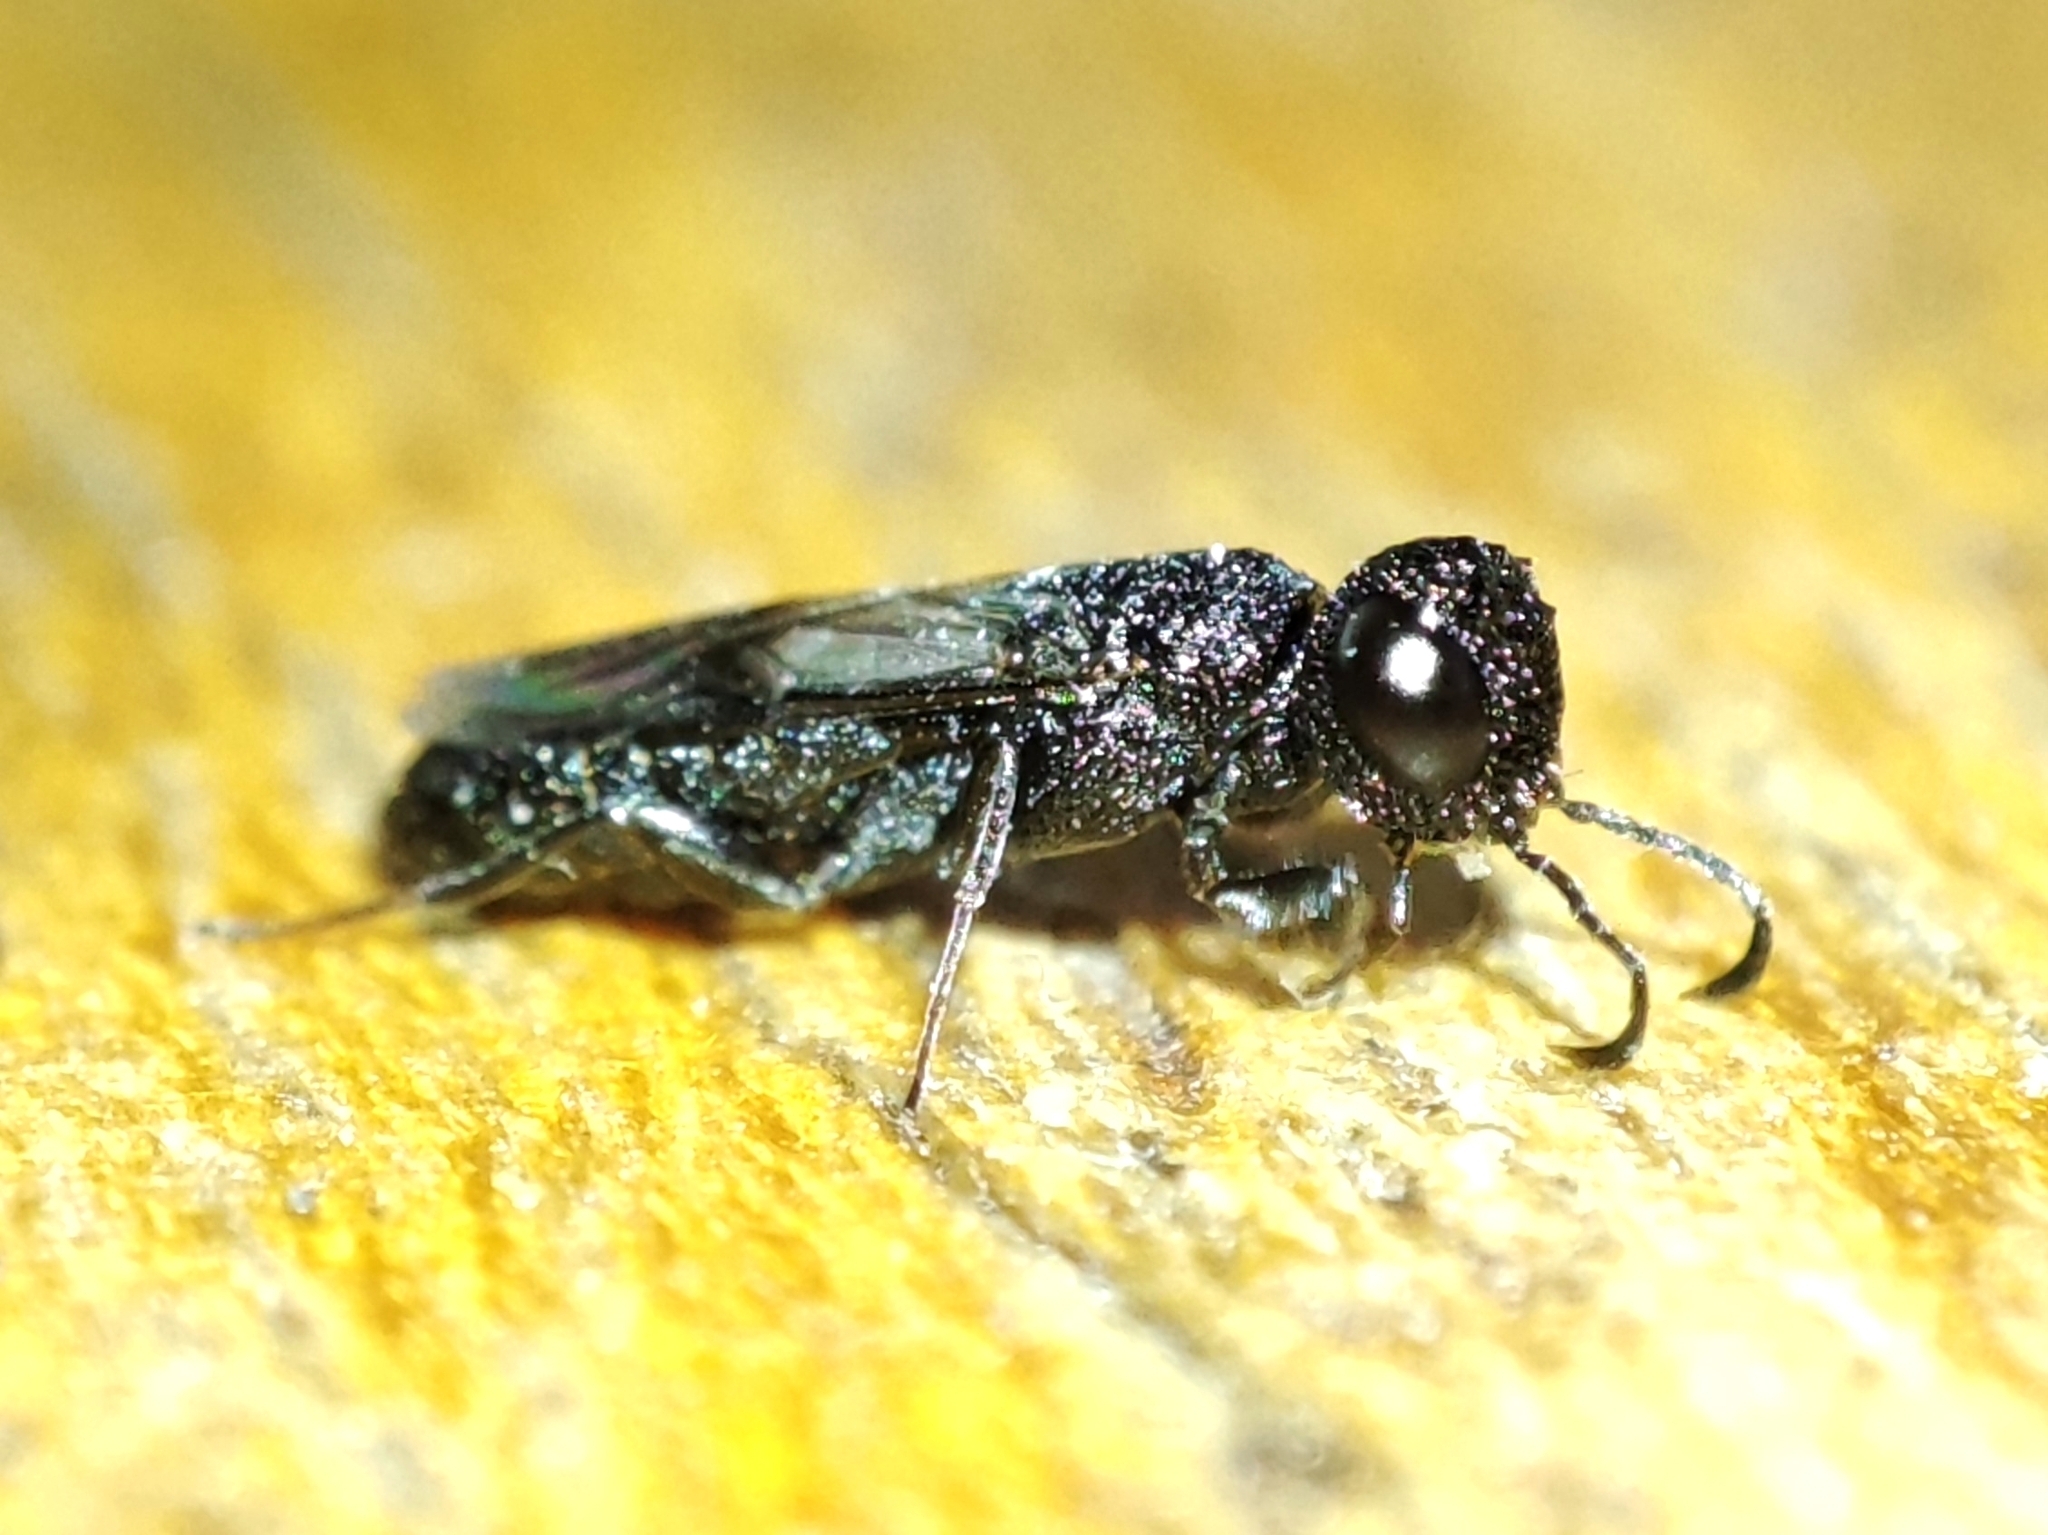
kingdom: Animalia
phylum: Arthropoda
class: Insecta
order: Hymenoptera
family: Orussusidae
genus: Pseudoryssus
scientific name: Pseudoryssus henschii
